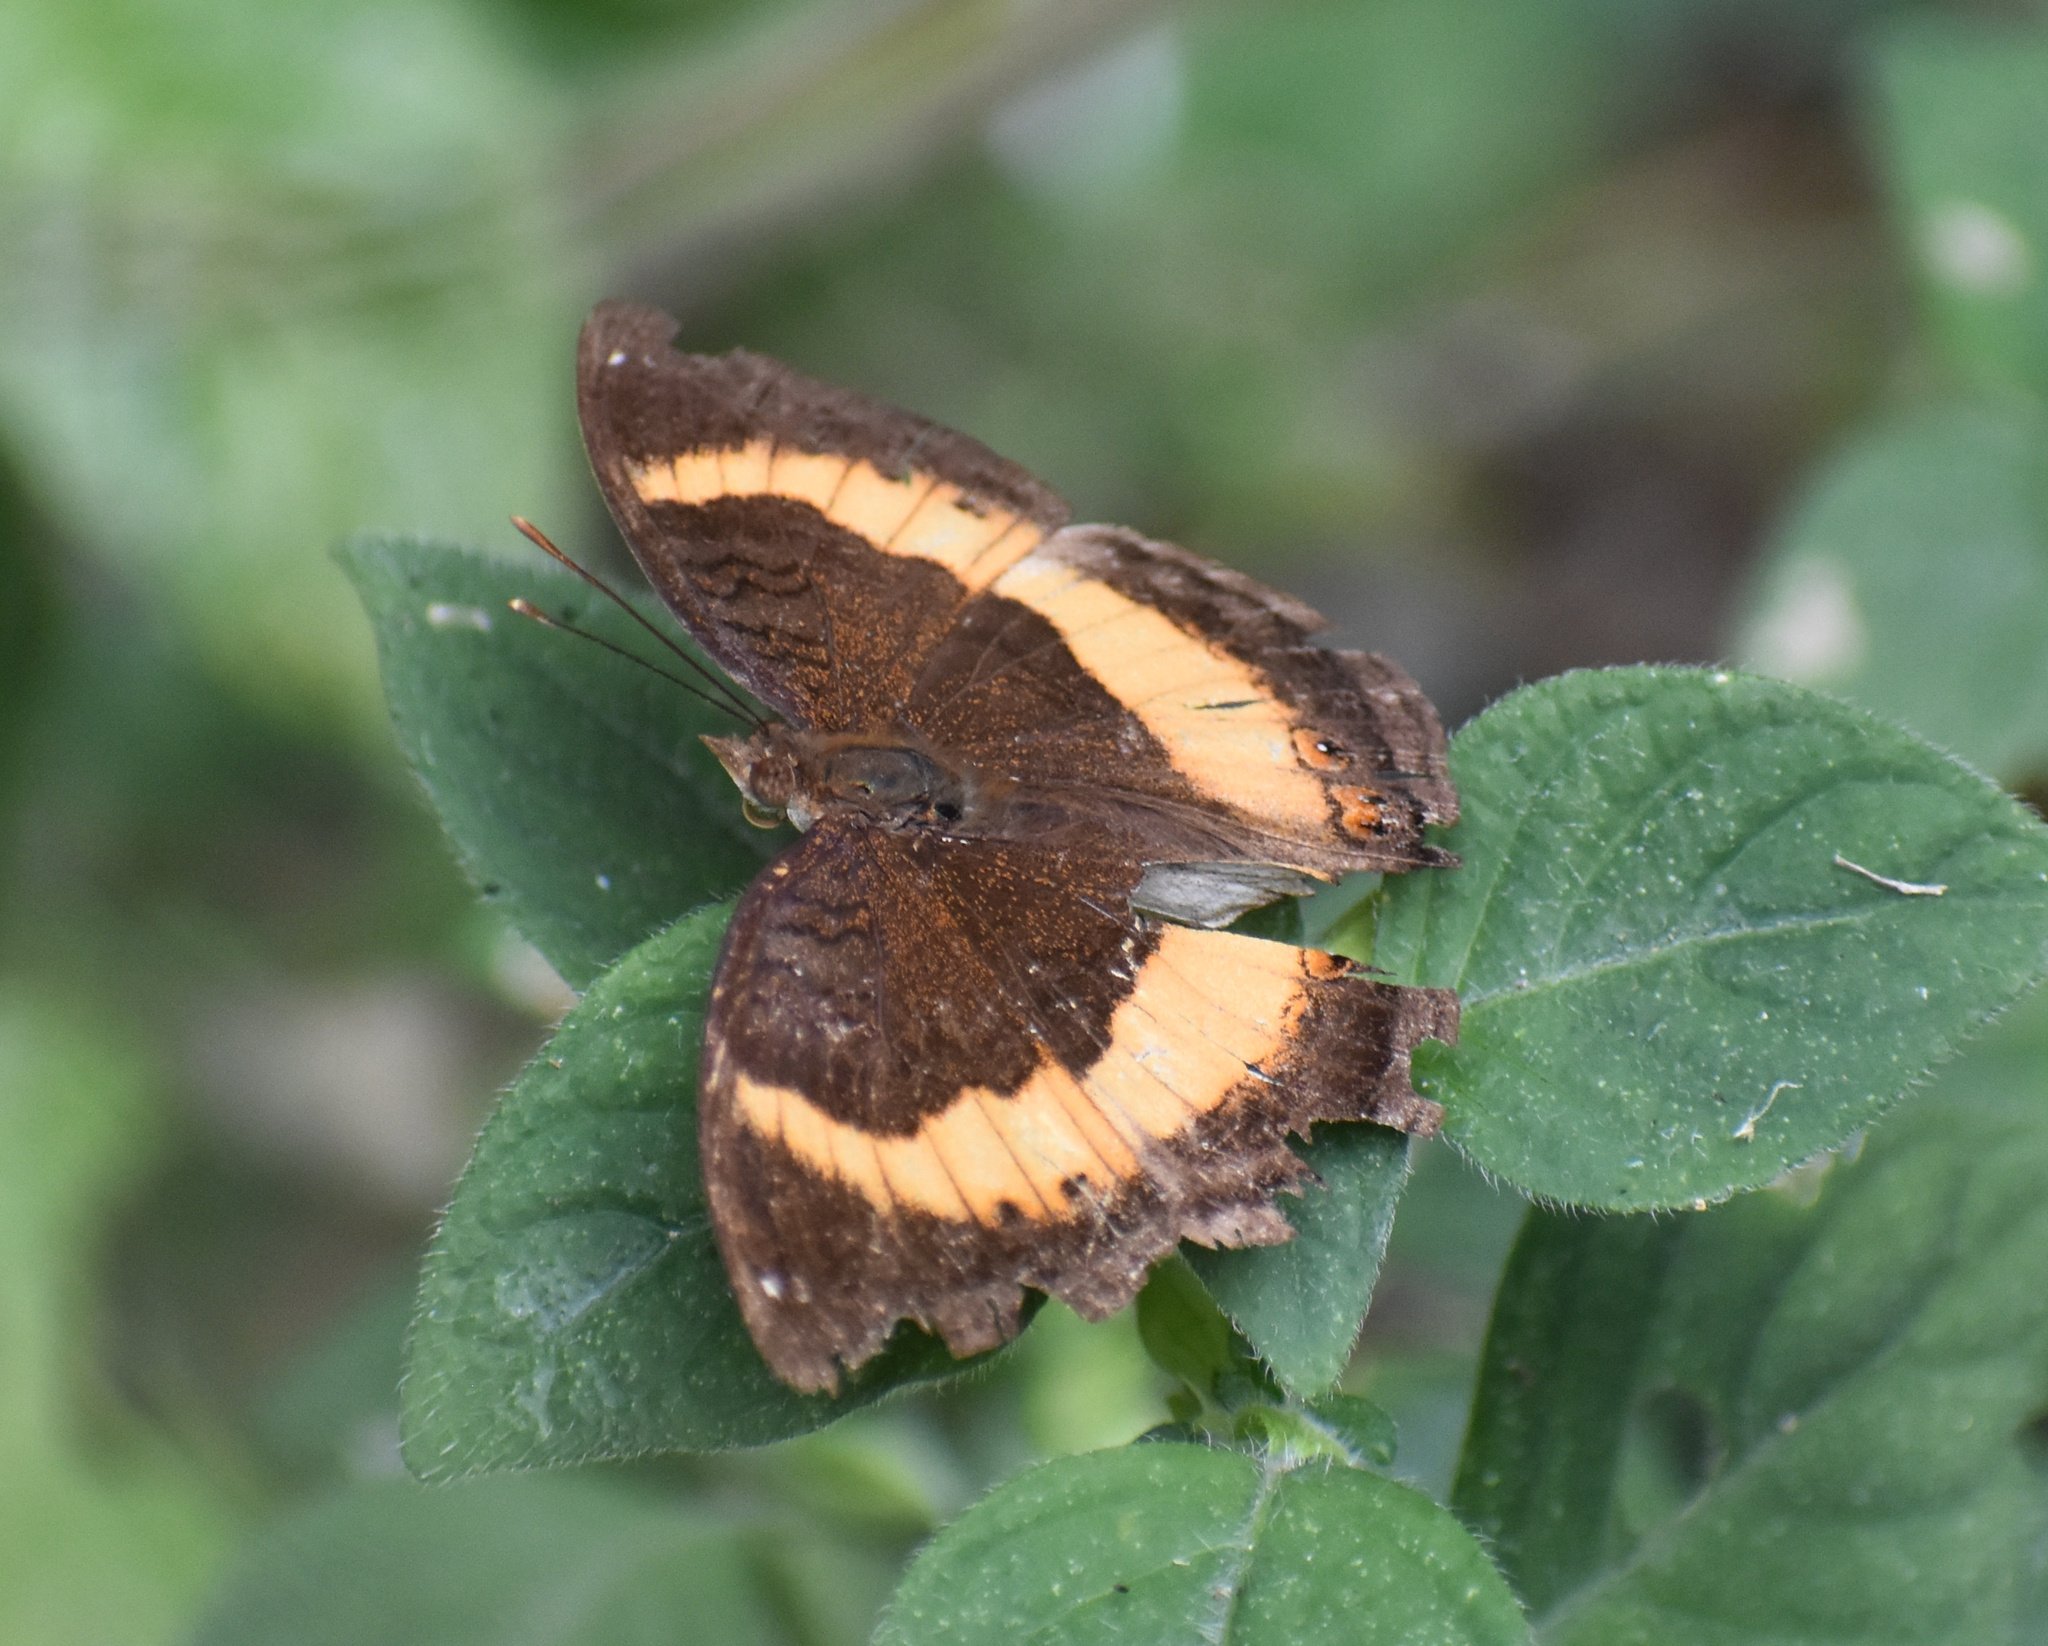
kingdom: Animalia
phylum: Arthropoda
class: Insecta
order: Lepidoptera
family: Nymphalidae
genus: Junonia
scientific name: Junonia terea
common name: Soldier pansy
